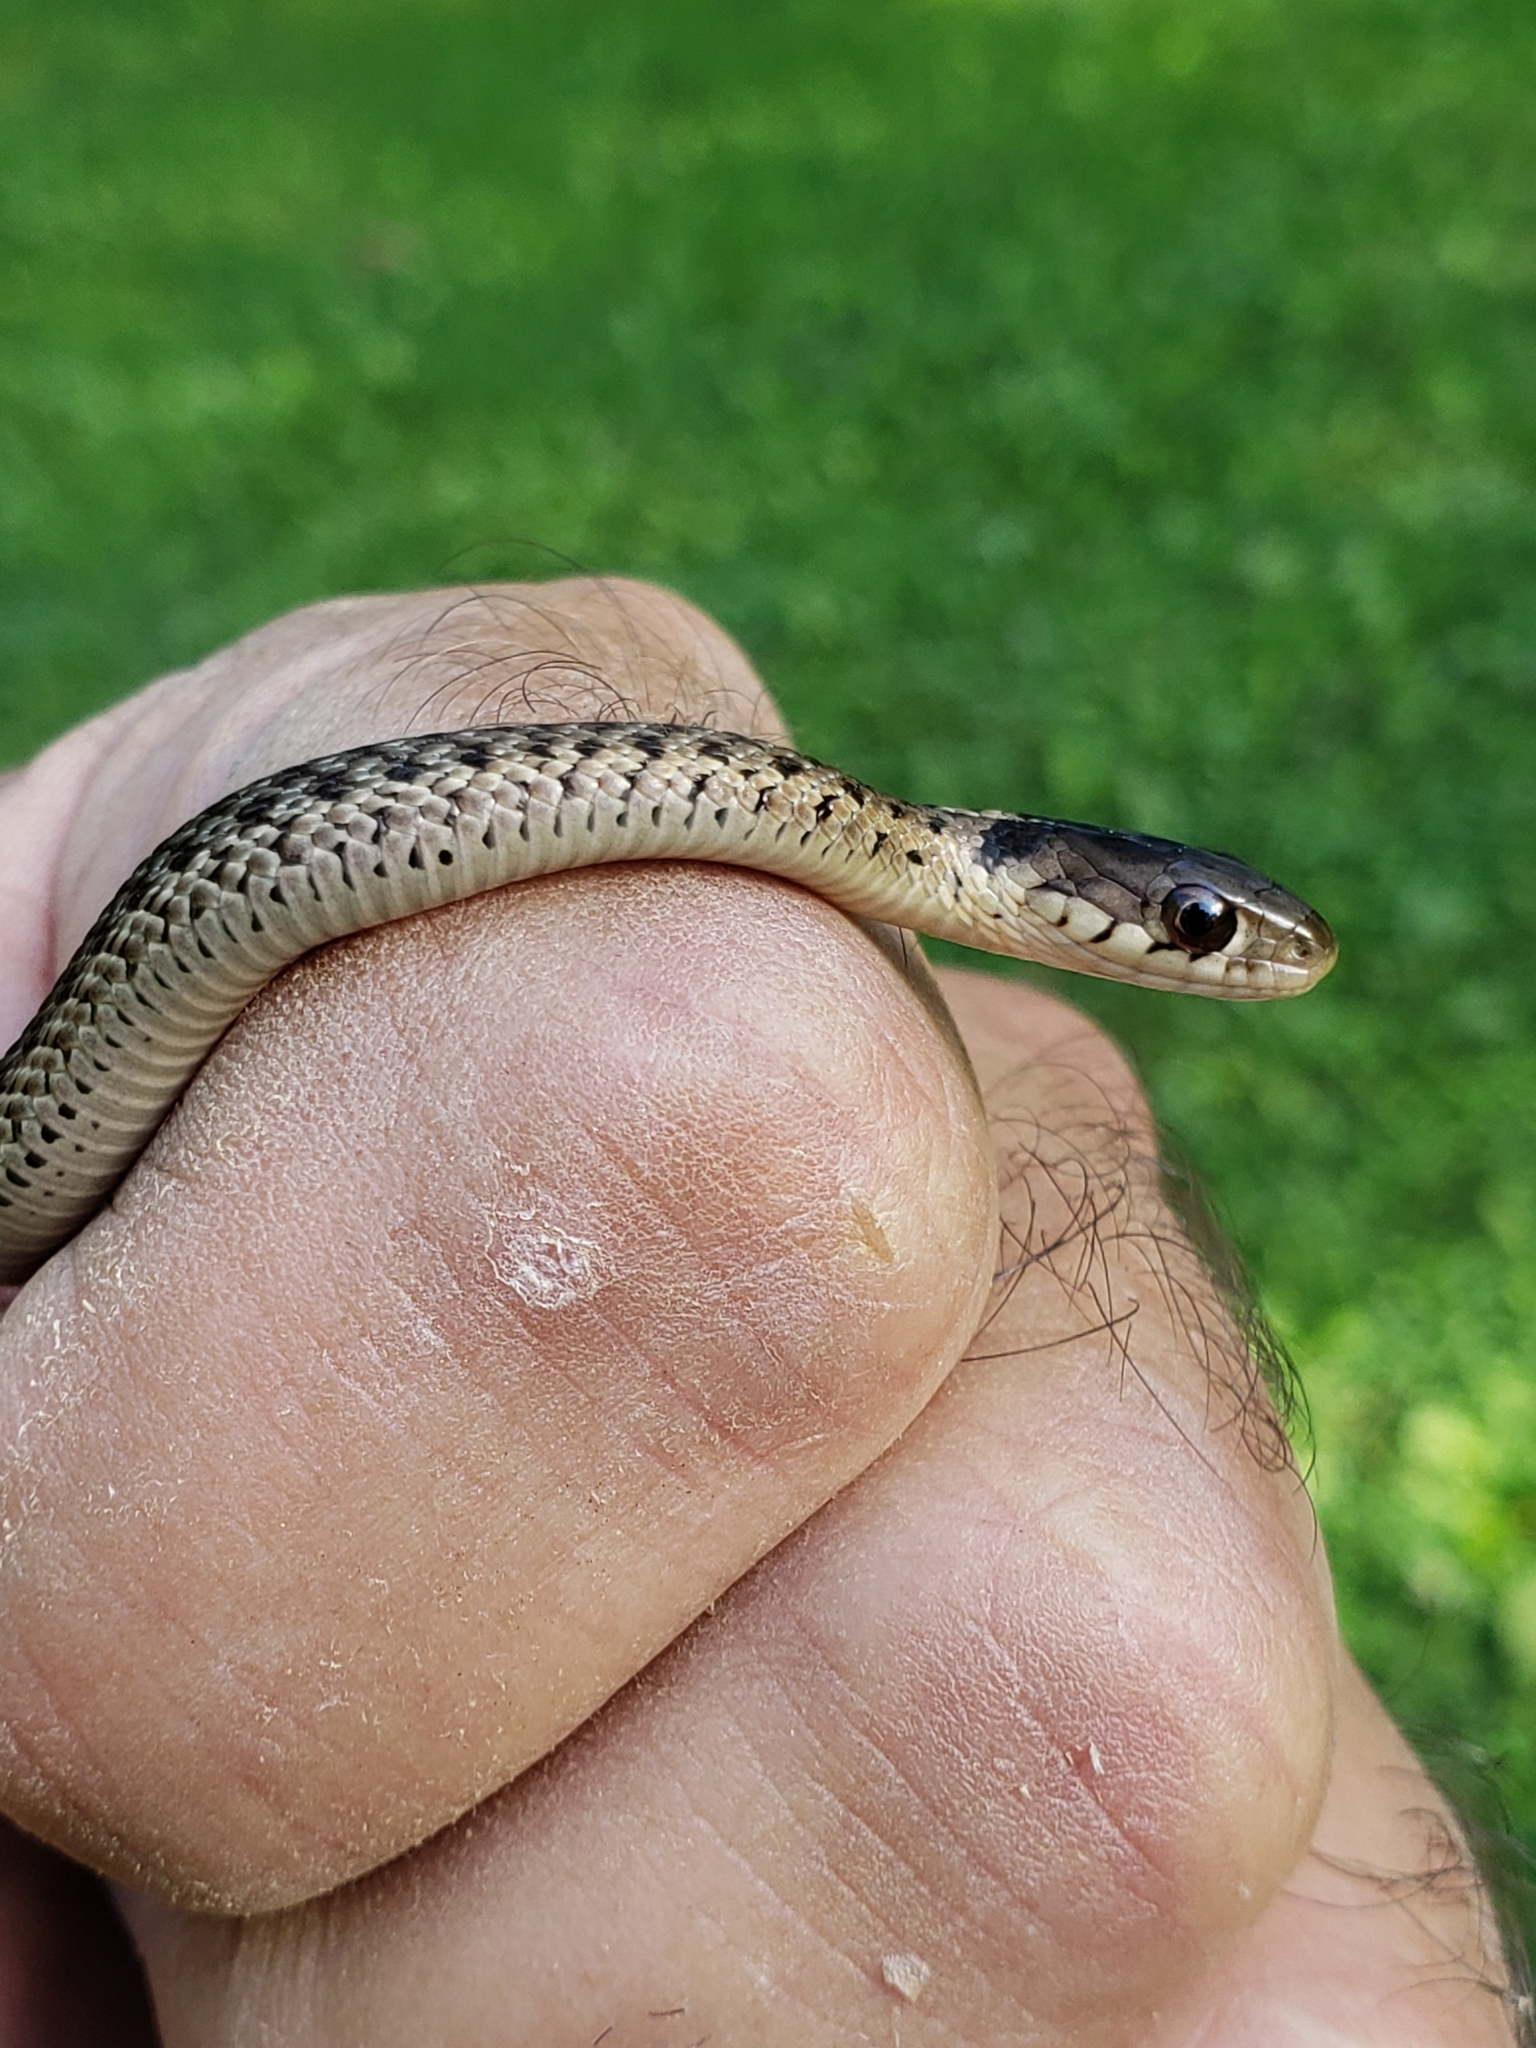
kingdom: Animalia
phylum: Chordata
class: Squamata
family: Colubridae
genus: Thamnophis
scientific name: Thamnophis sirtalis
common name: Common garter snake
